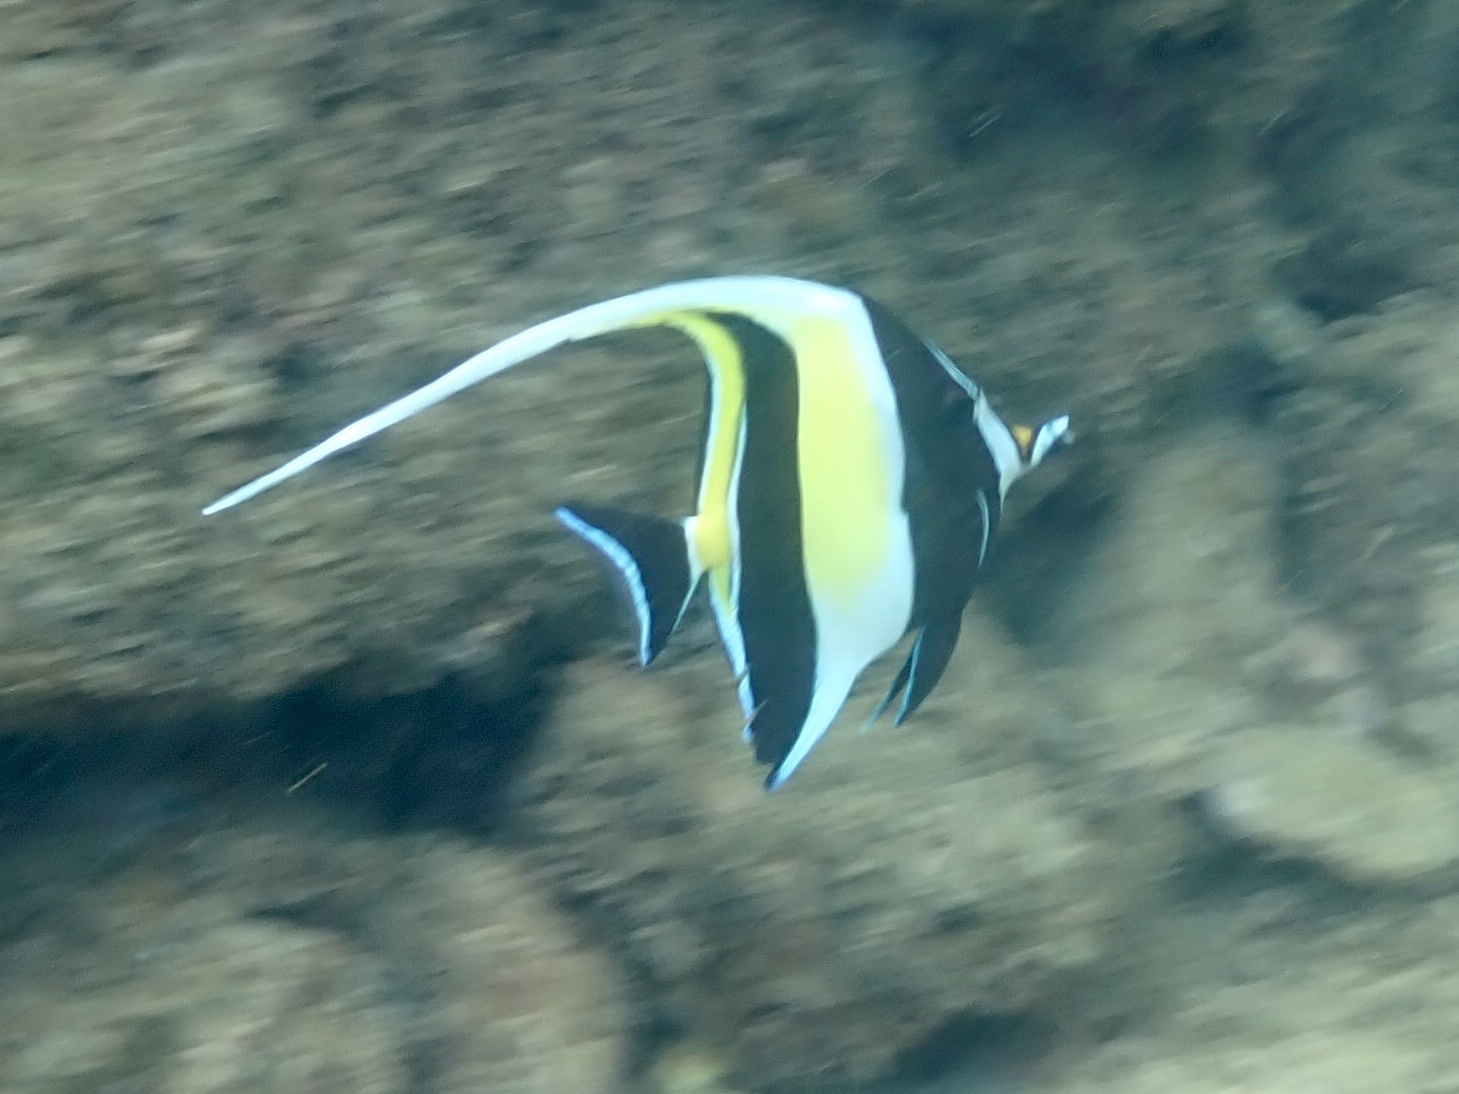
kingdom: Animalia
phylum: Chordata
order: Perciformes
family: Zanclidae
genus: Zanclus
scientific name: Zanclus cornutus
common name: Moorish idol
